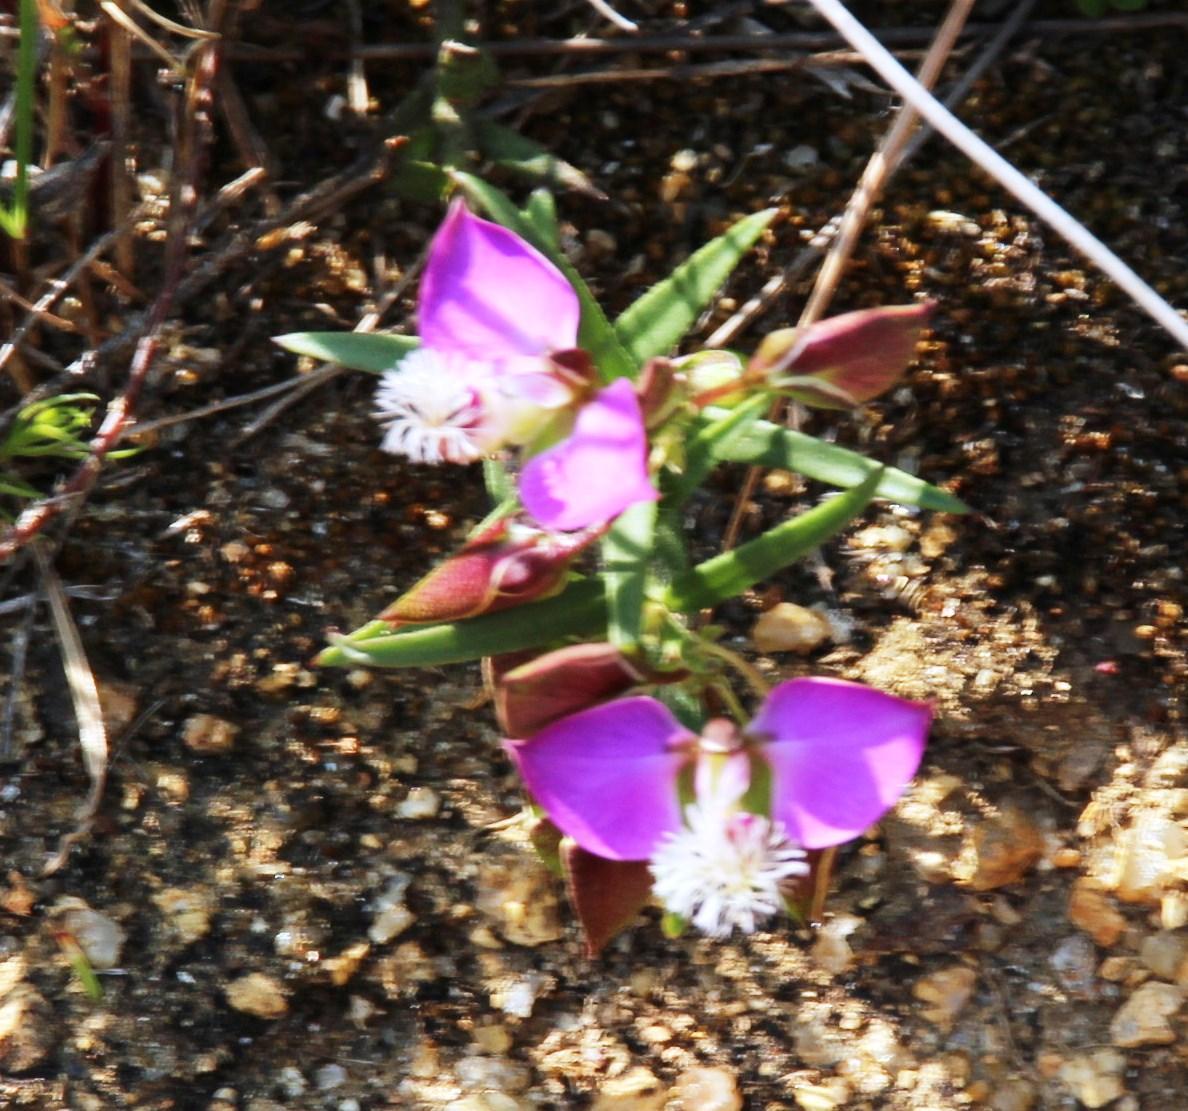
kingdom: Plantae
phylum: Tracheophyta
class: Magnoliopsida
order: Fabales
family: Polygalaceae
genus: Polygala
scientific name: Polygala bracteolata
